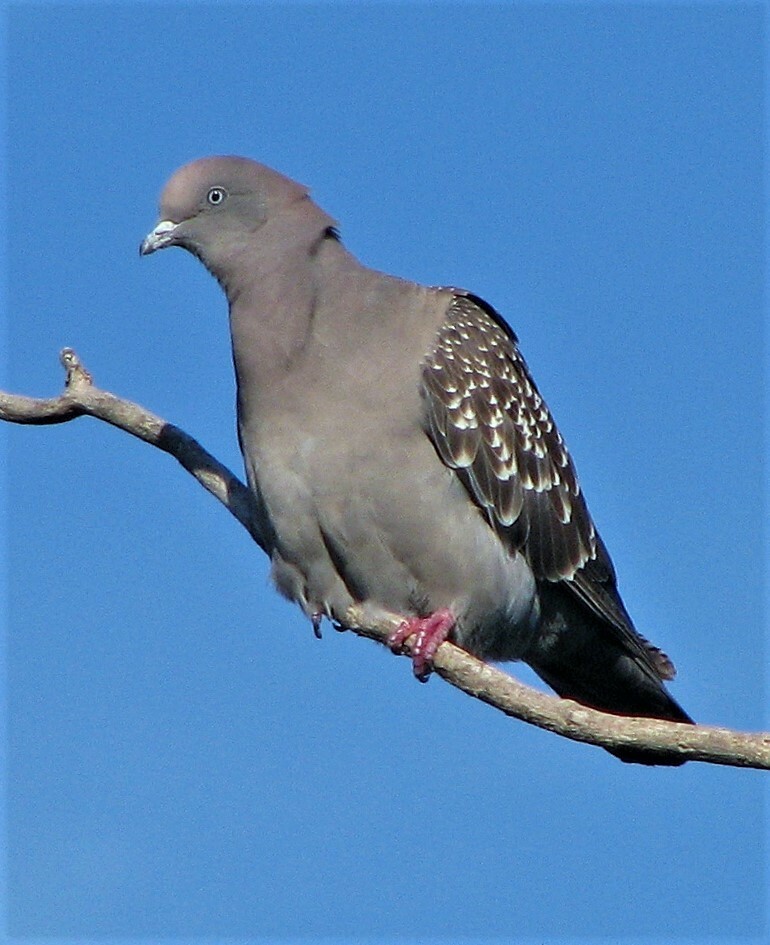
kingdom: Animalia
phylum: Chordata
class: Aves
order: Columbiformes
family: Columbidae
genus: Patagioenas
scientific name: Patagioenas maculosa
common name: Spot-winged pigeon
